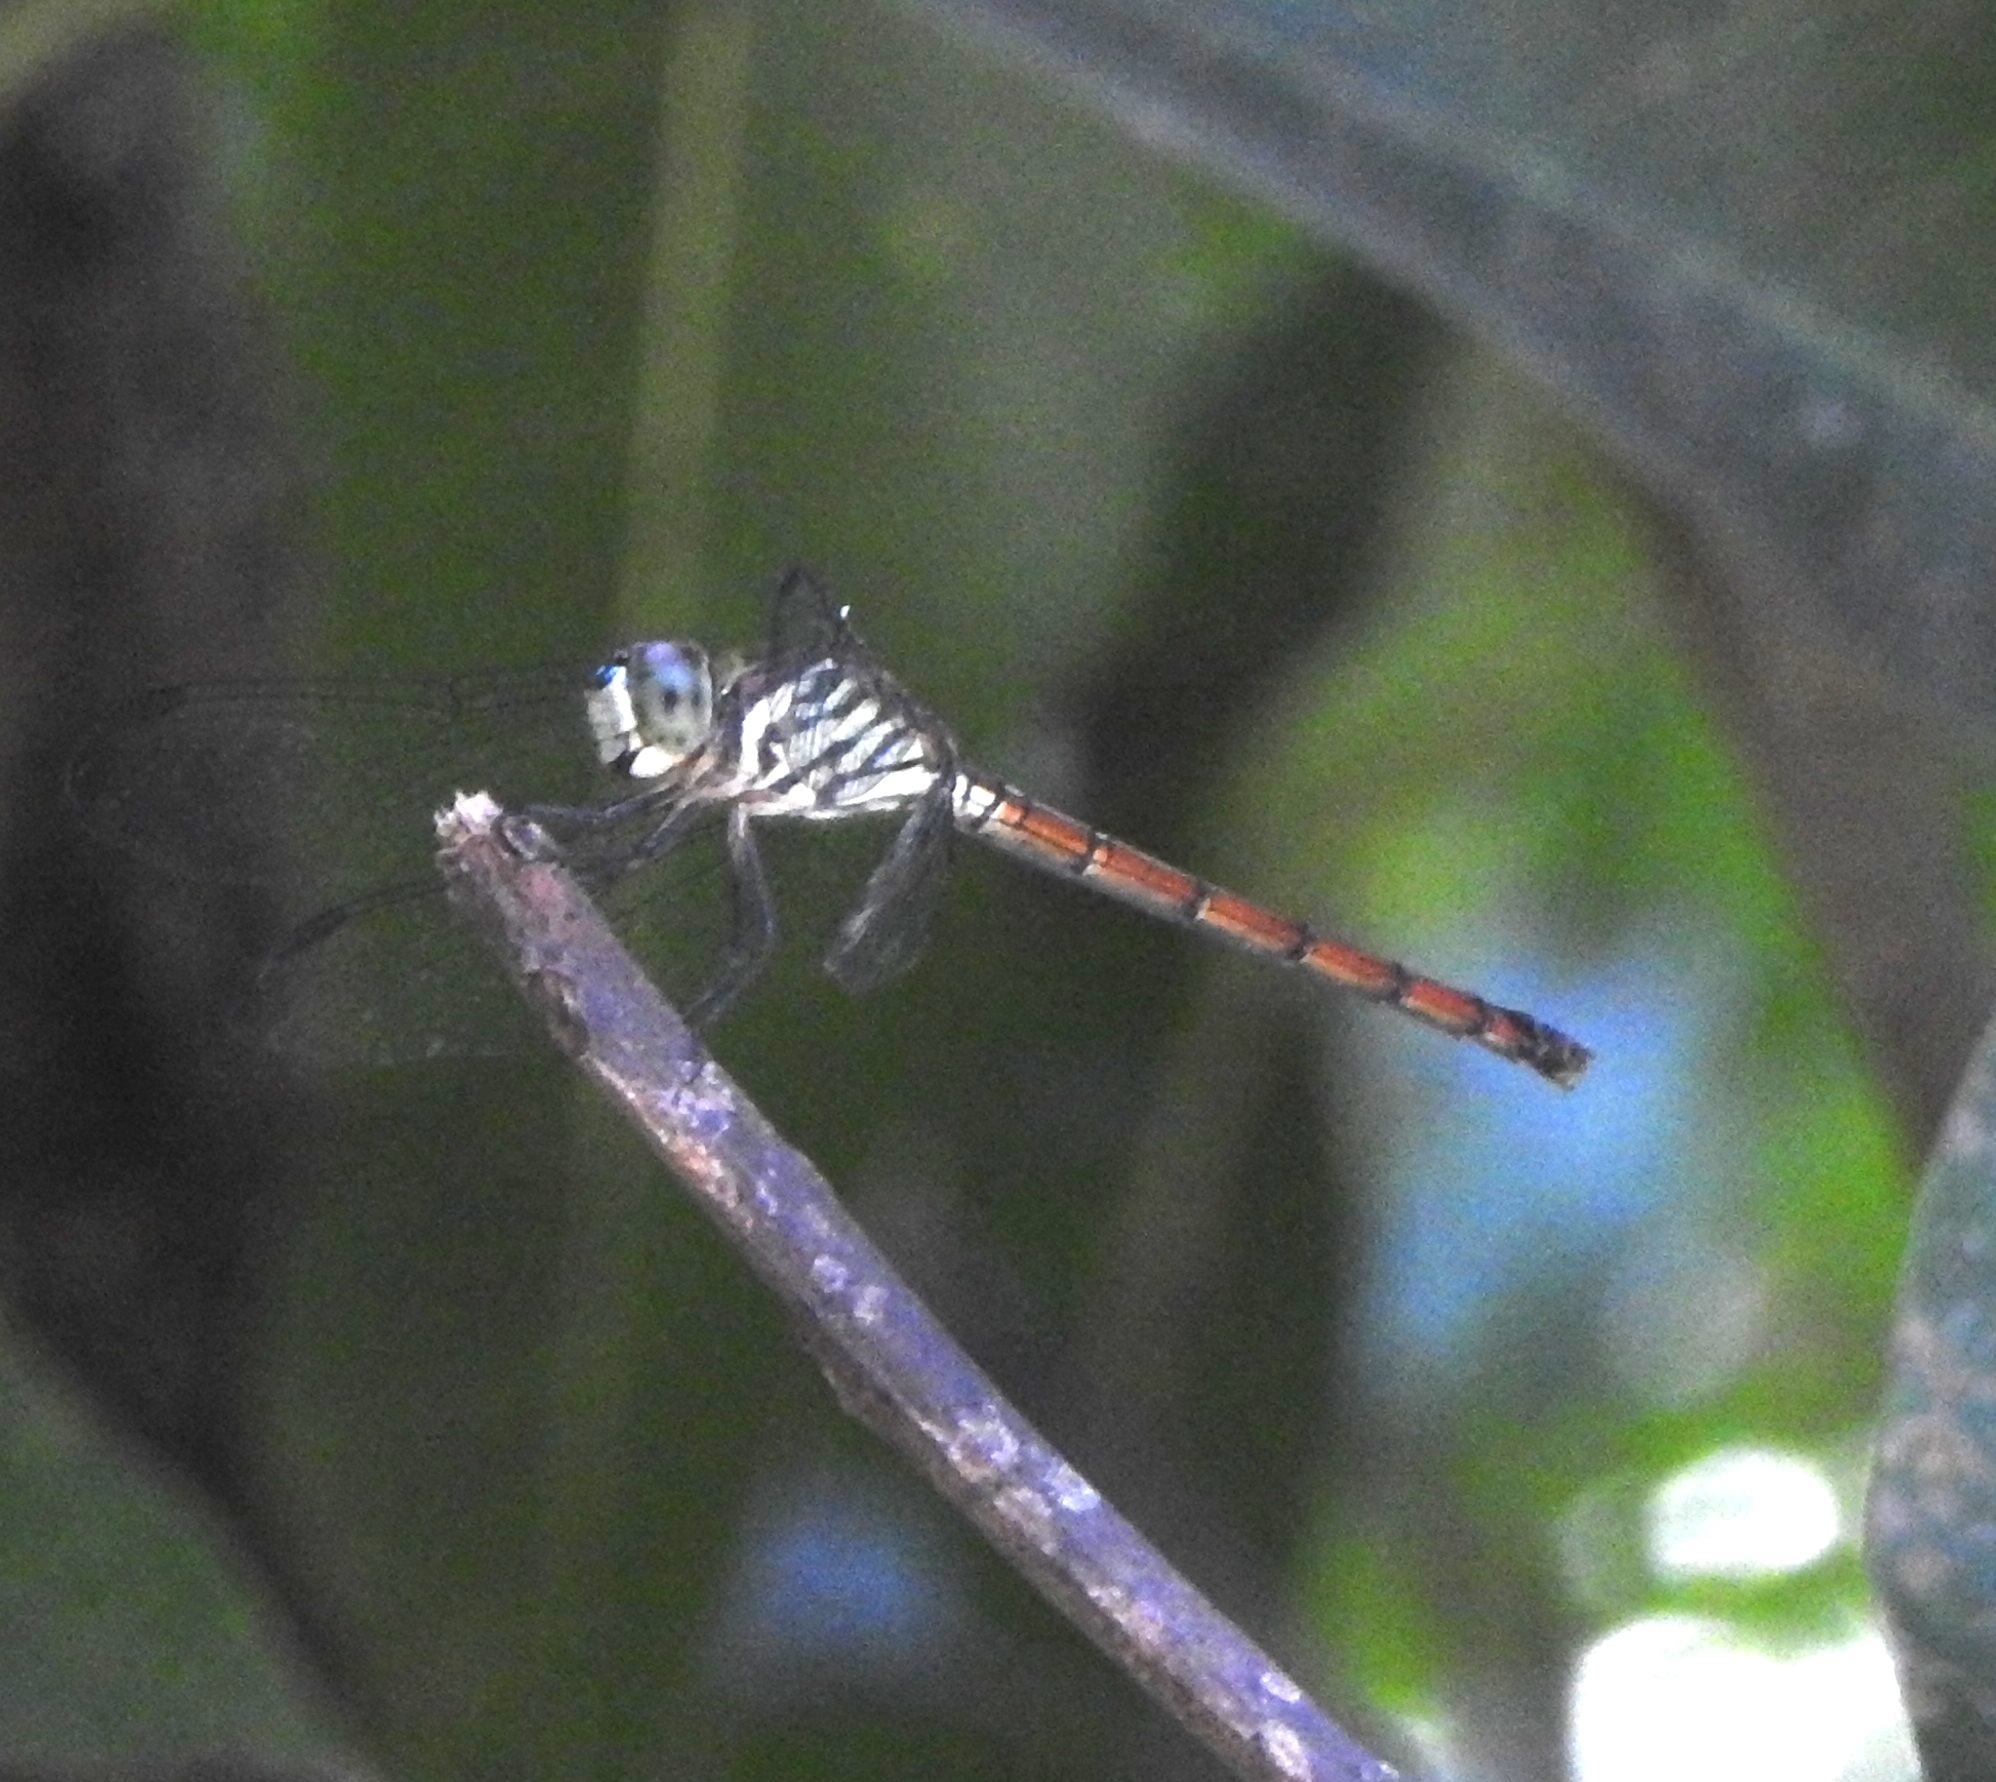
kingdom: Animalia
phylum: Arthropoda
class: Insecta
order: Odonata
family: Libellulidae
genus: Lathrecista
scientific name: Lathrecista asiatica
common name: Scarlet grenadier
